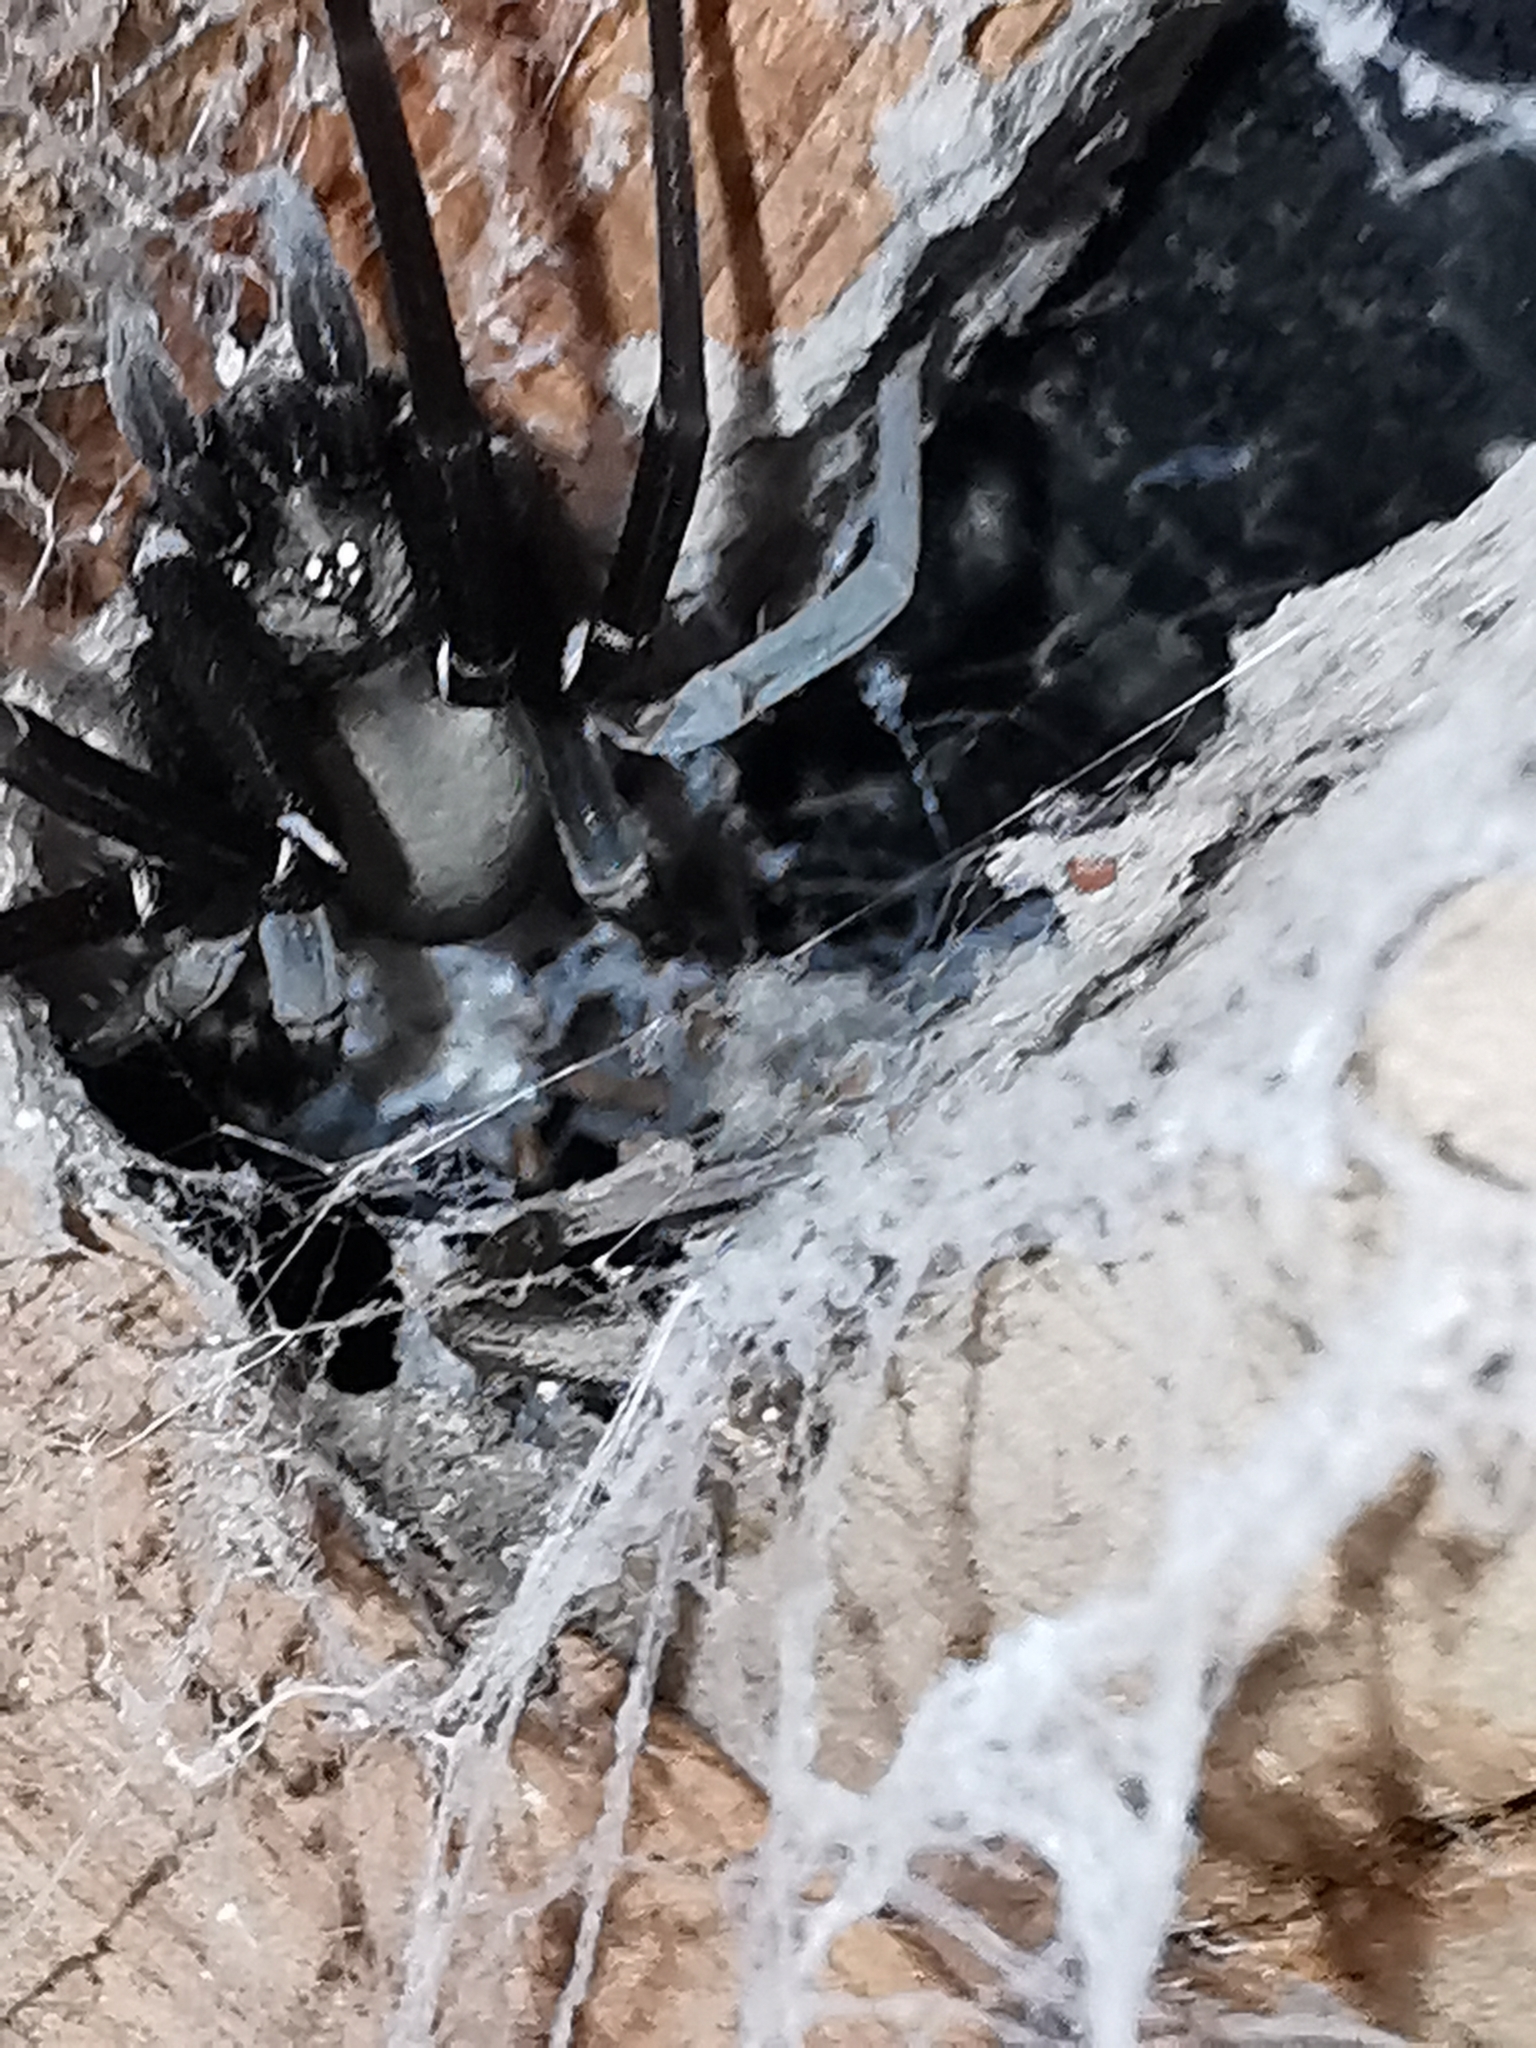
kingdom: Animalia
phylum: Arthropoda
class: Arachnida
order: Araneae
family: Filistatidae
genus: Kukulcania
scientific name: Kukulcania hibernalis
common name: Crevice weaver
